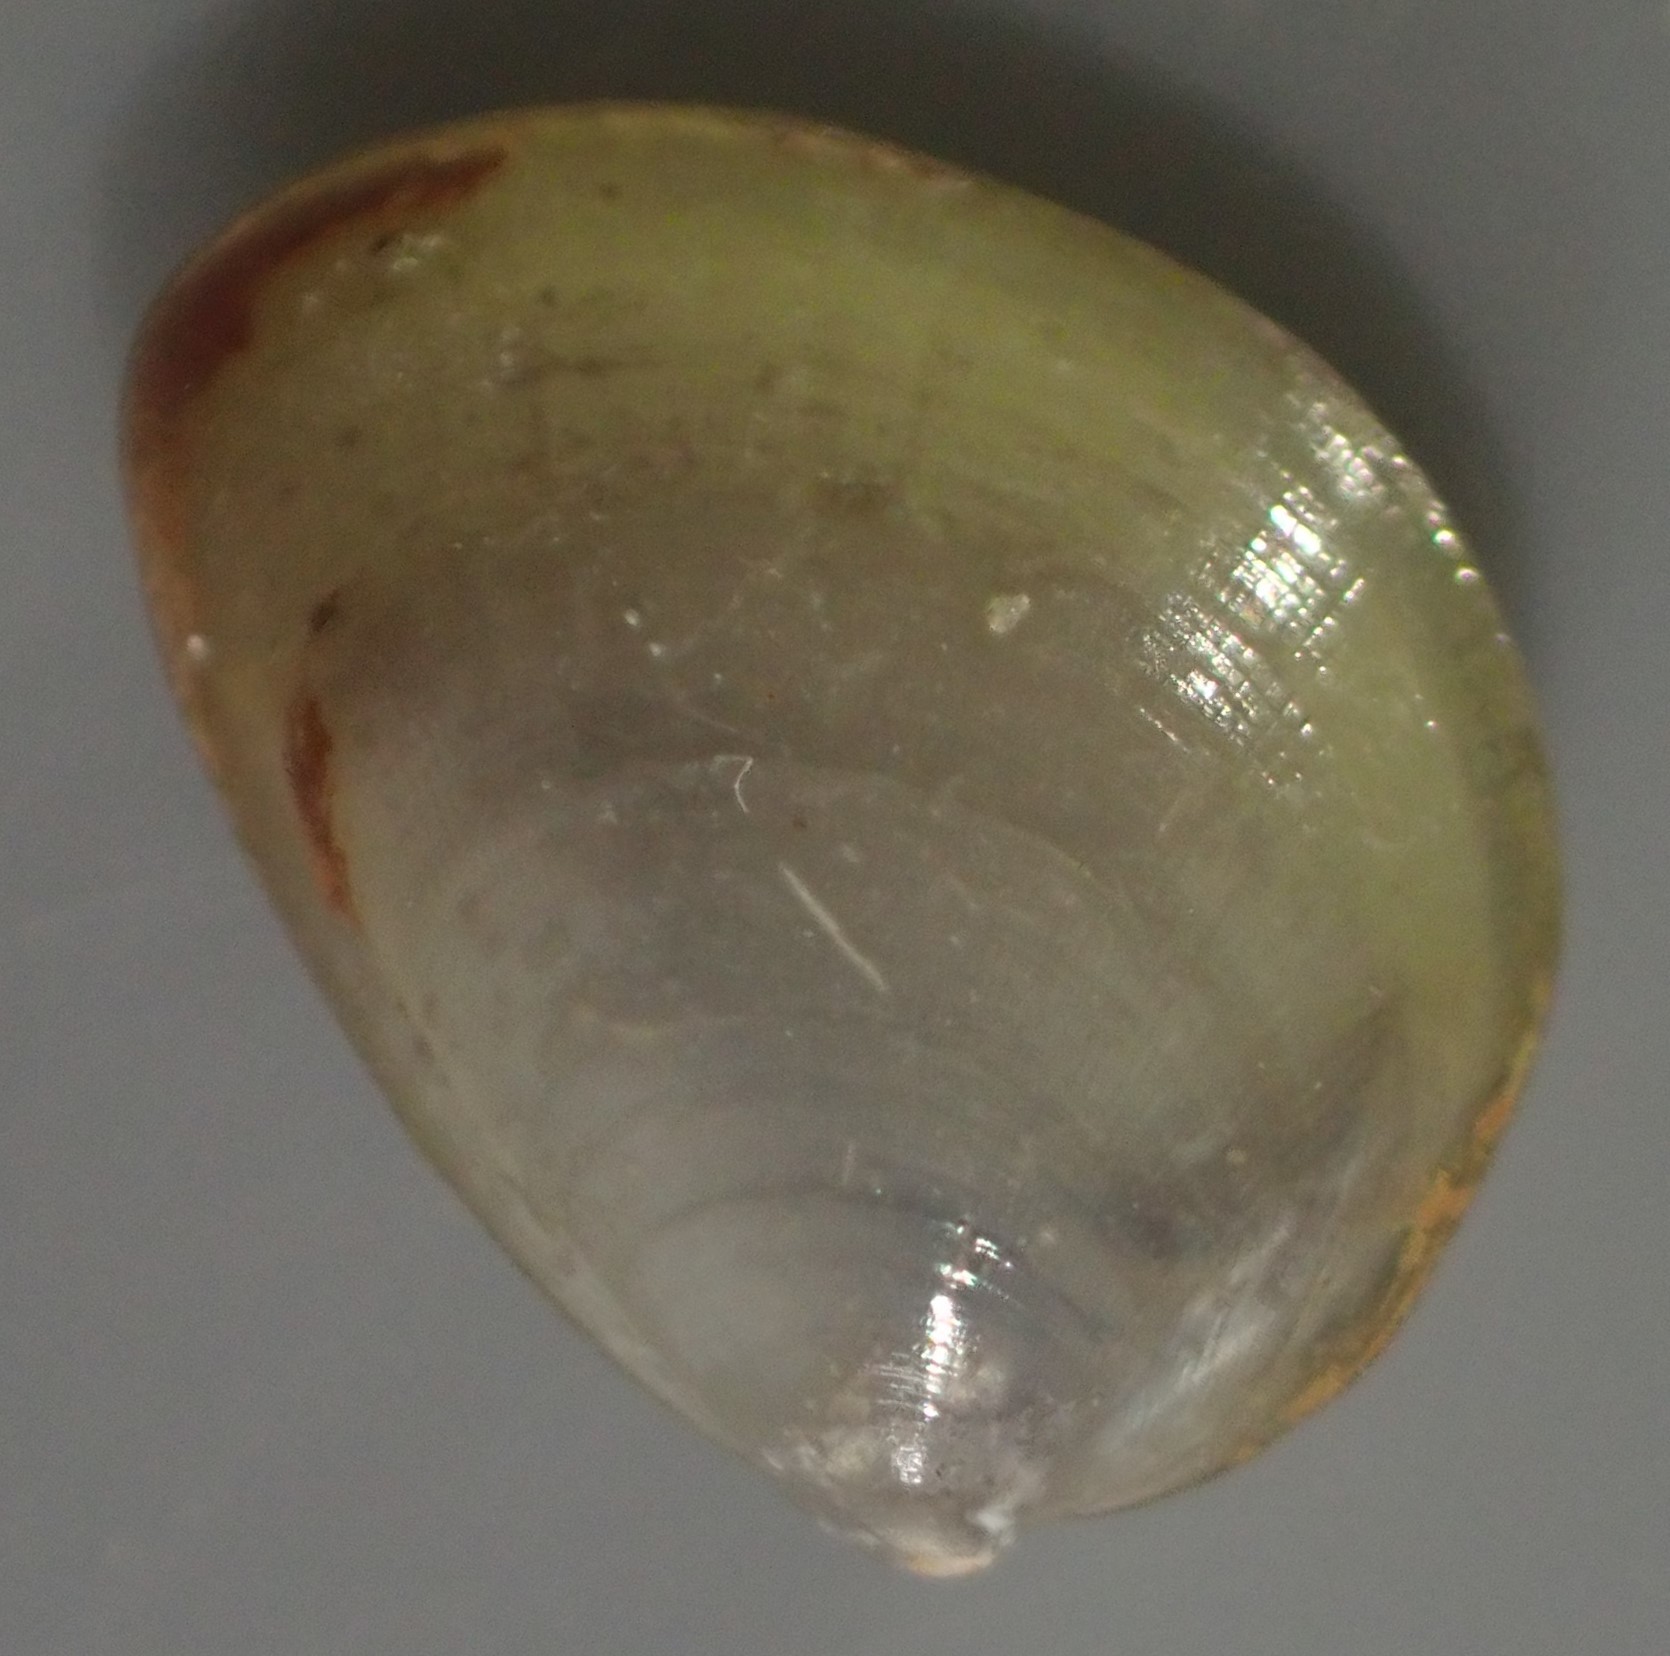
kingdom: Animalia
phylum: Mollusca
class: Bivalvia
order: Nuculida
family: Nuculidae
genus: Nucula
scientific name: Nucula nitidula
